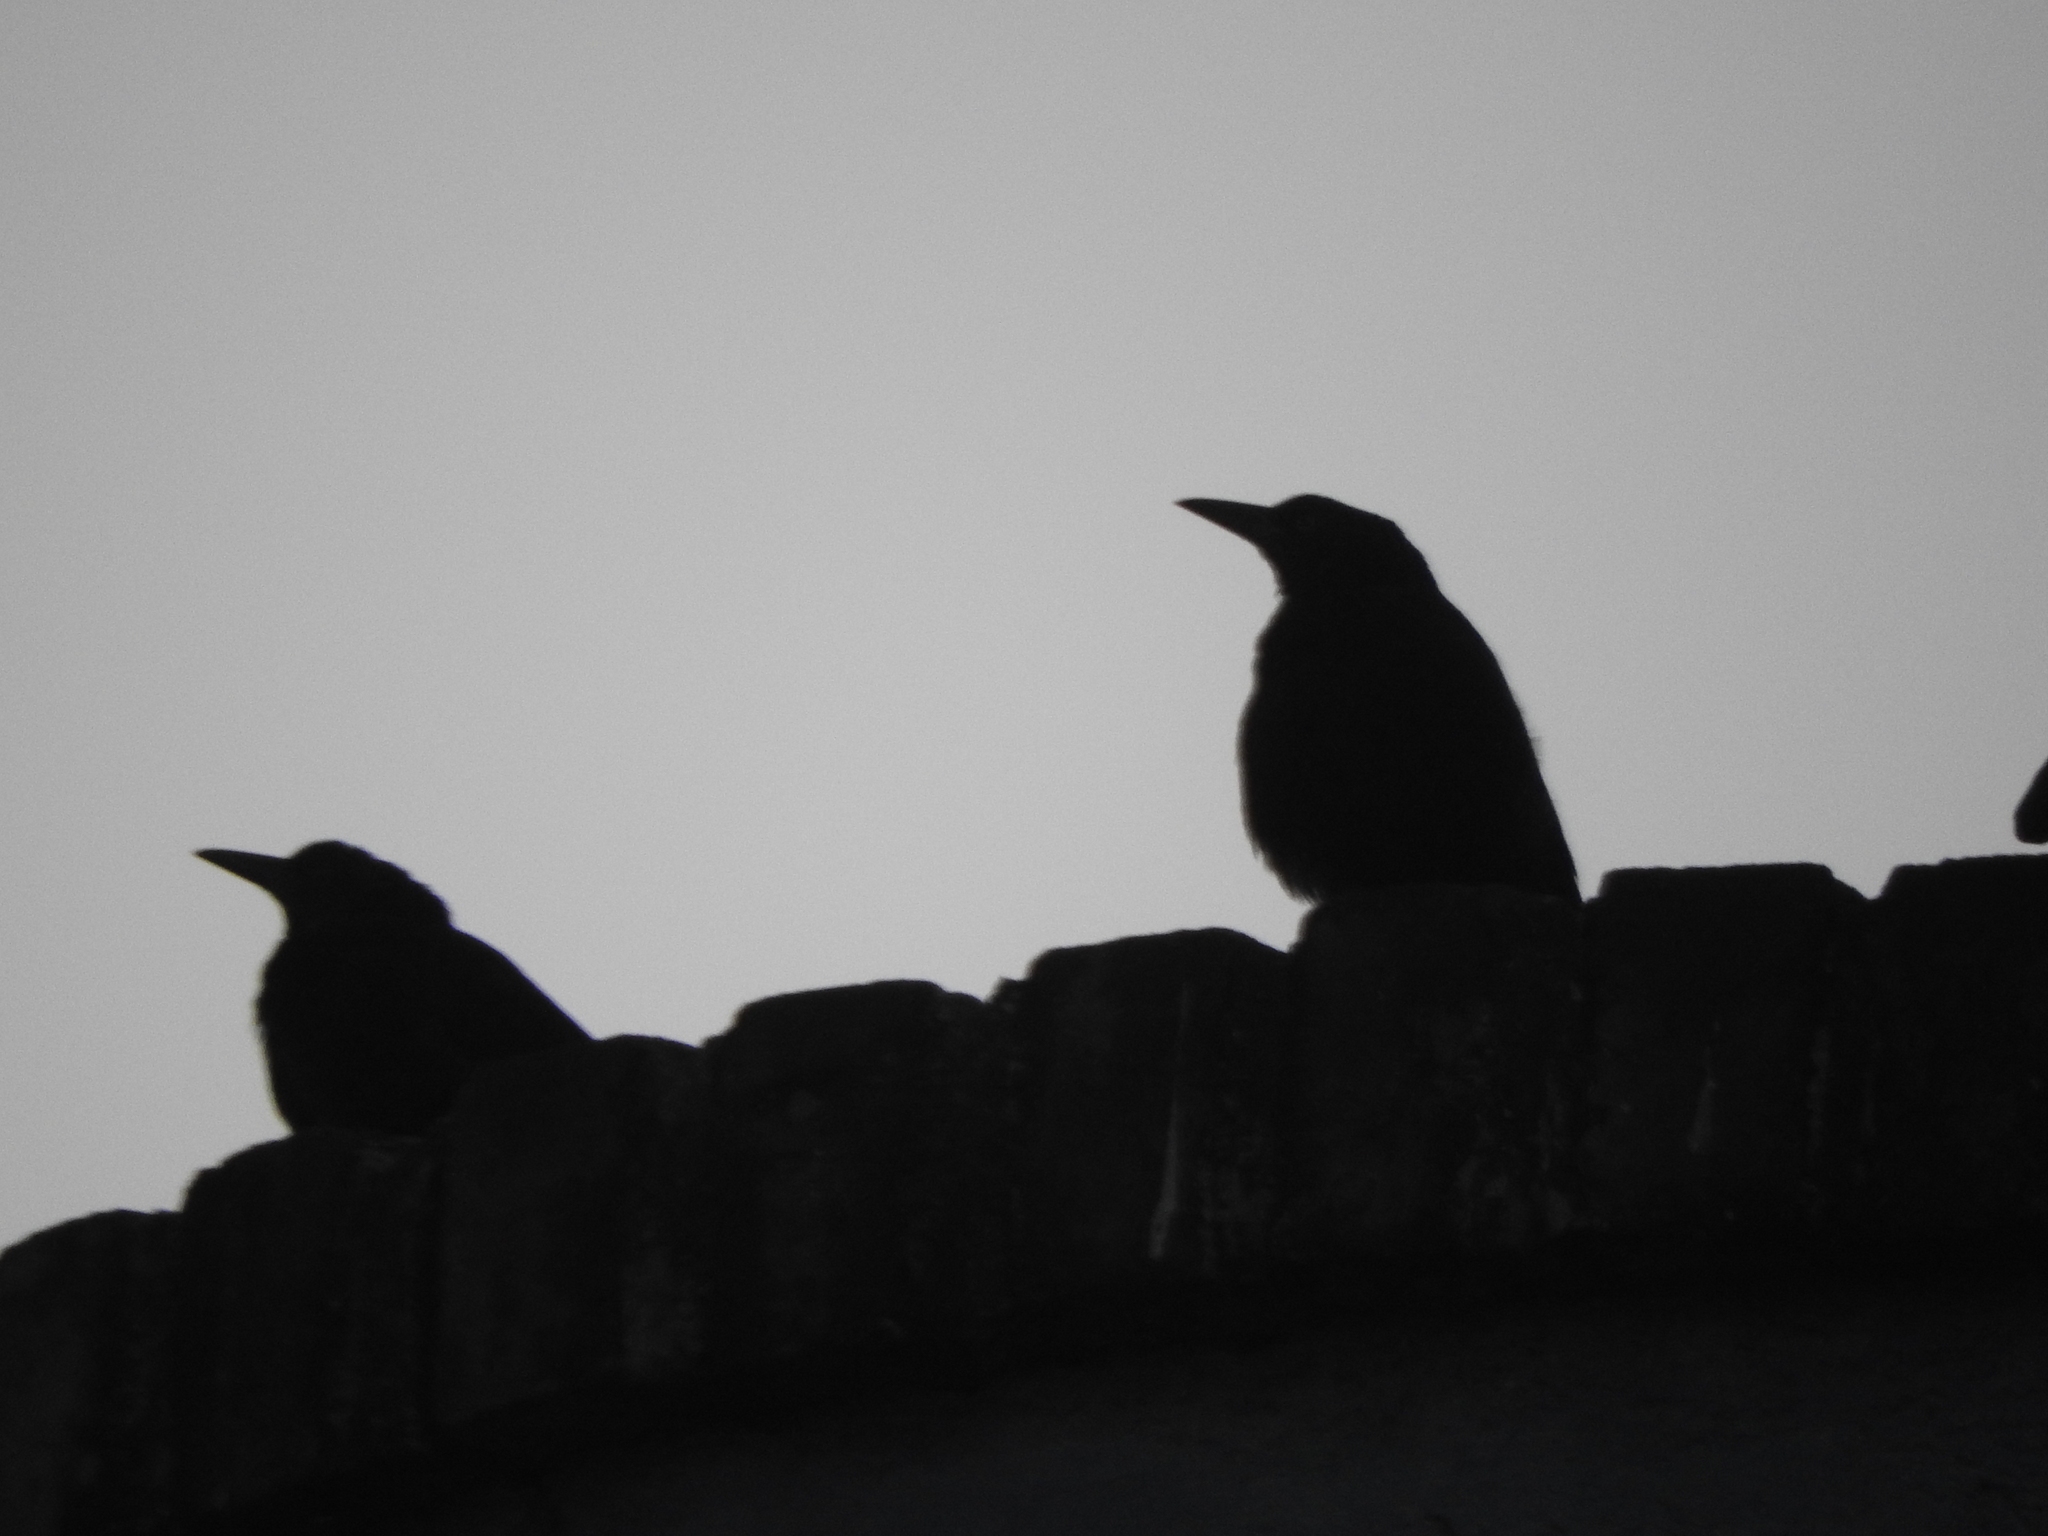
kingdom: Animalia
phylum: Chordata
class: Aves
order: Passeriformes
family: Icteridae
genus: Quiscalus
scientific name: Quiscalus mexicanus
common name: Great-tailed grackle
